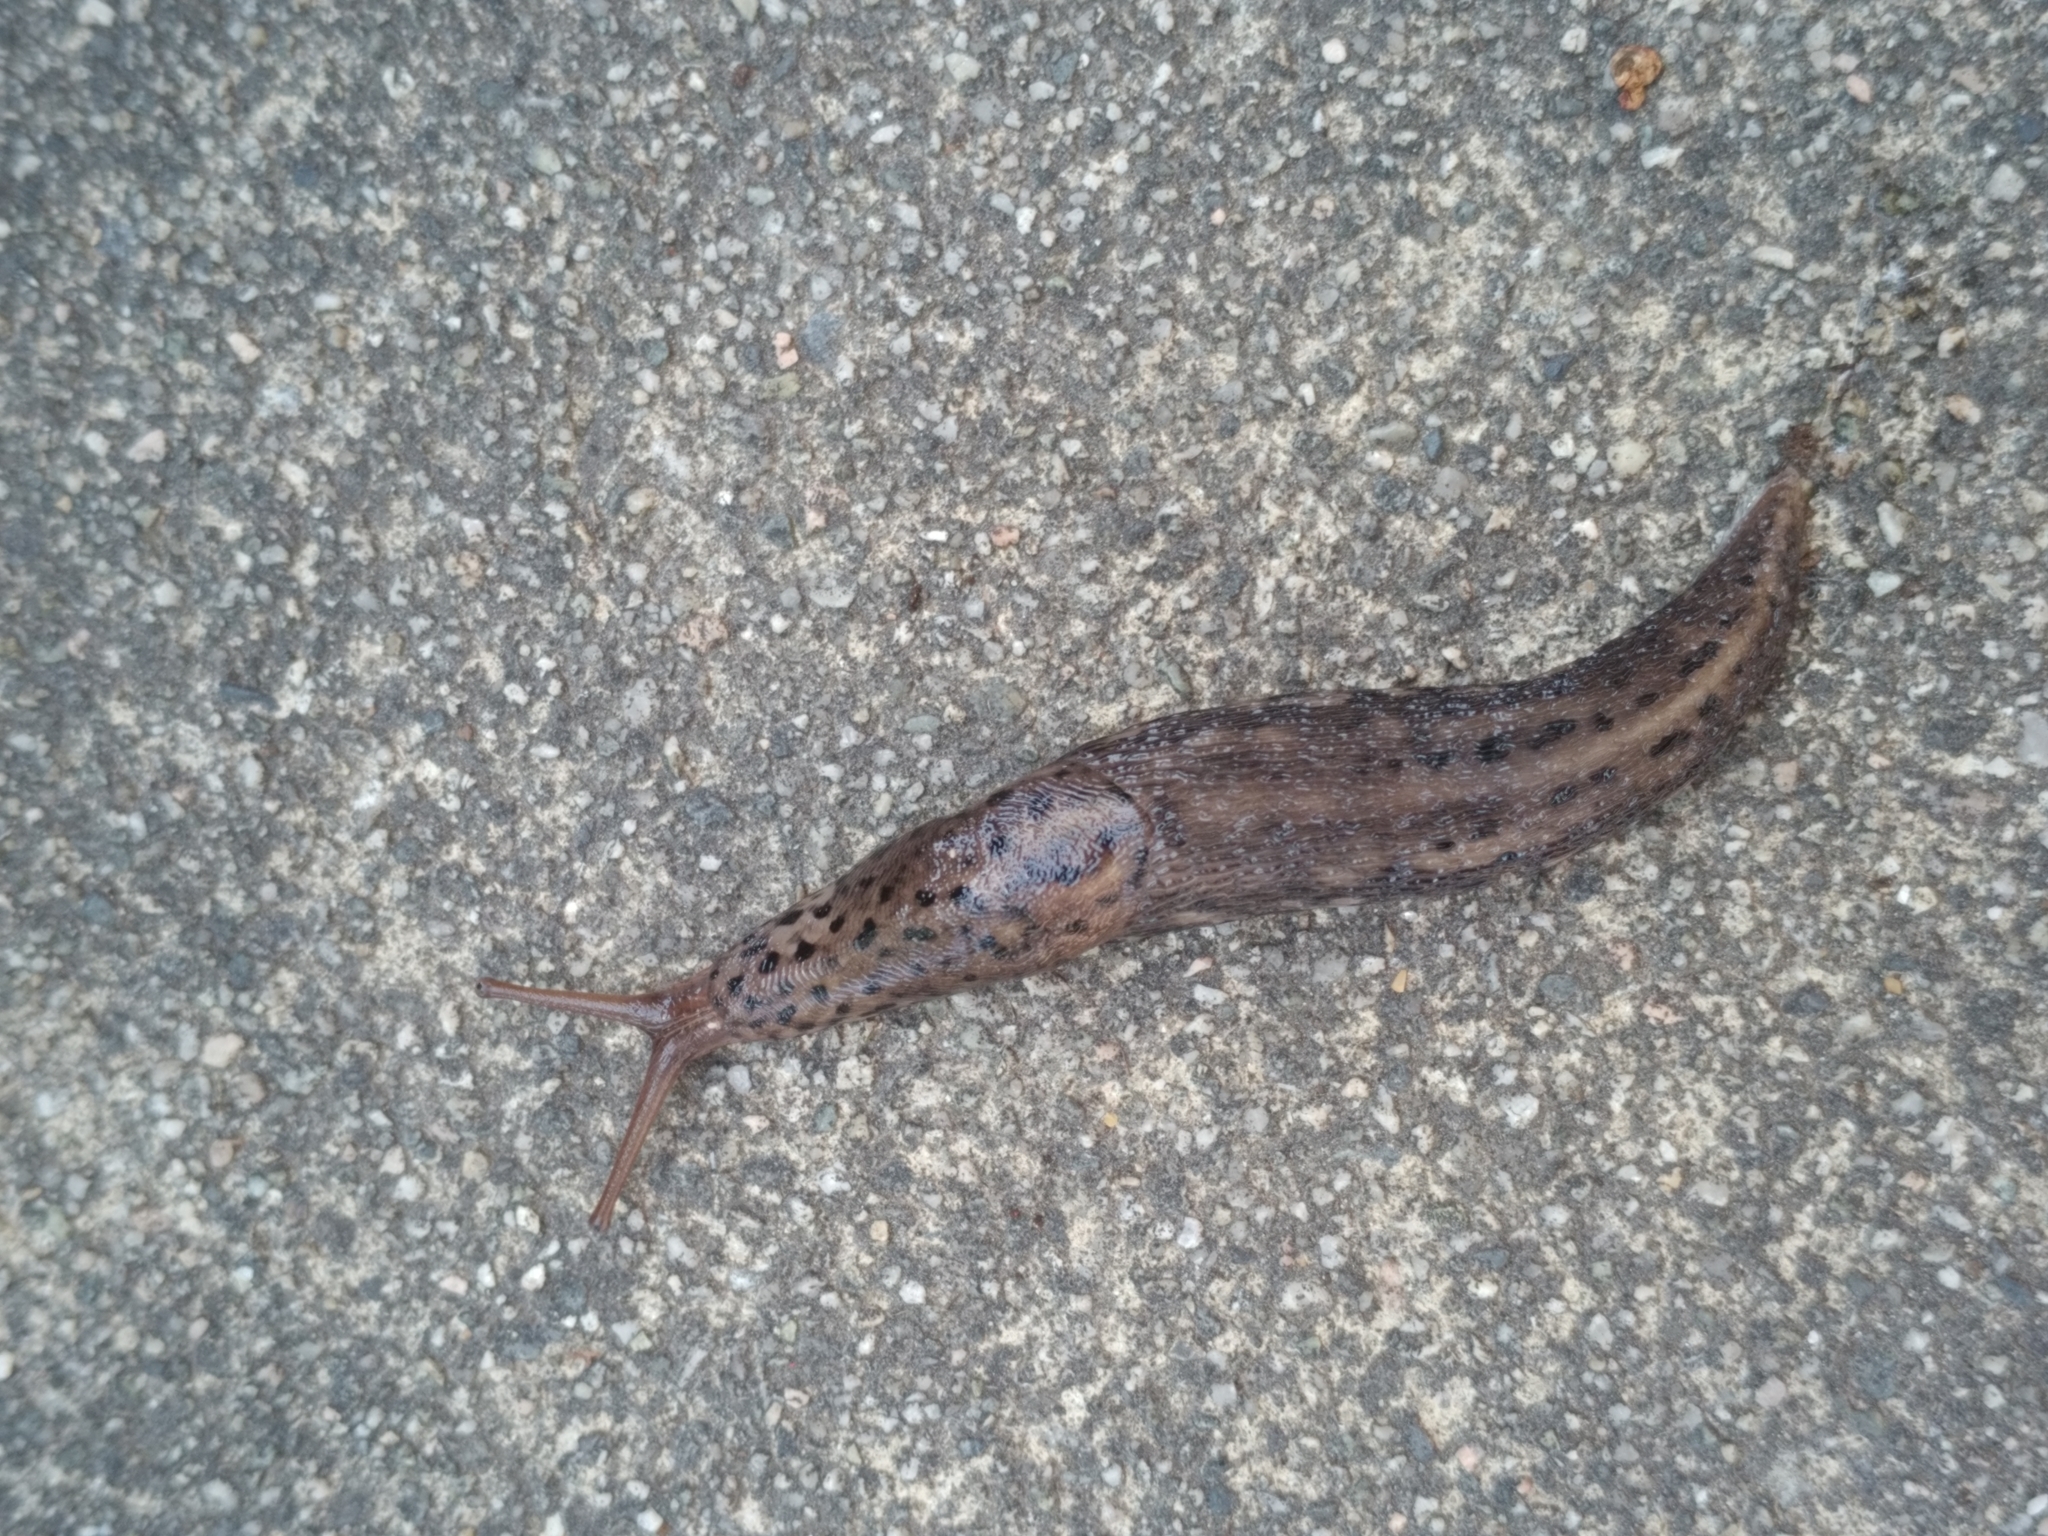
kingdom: Animalia
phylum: Mollusca
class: Gastropoda
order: Stylommatophora
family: Limacidae
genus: Limax
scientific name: Limax maximus
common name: Great grey slug
